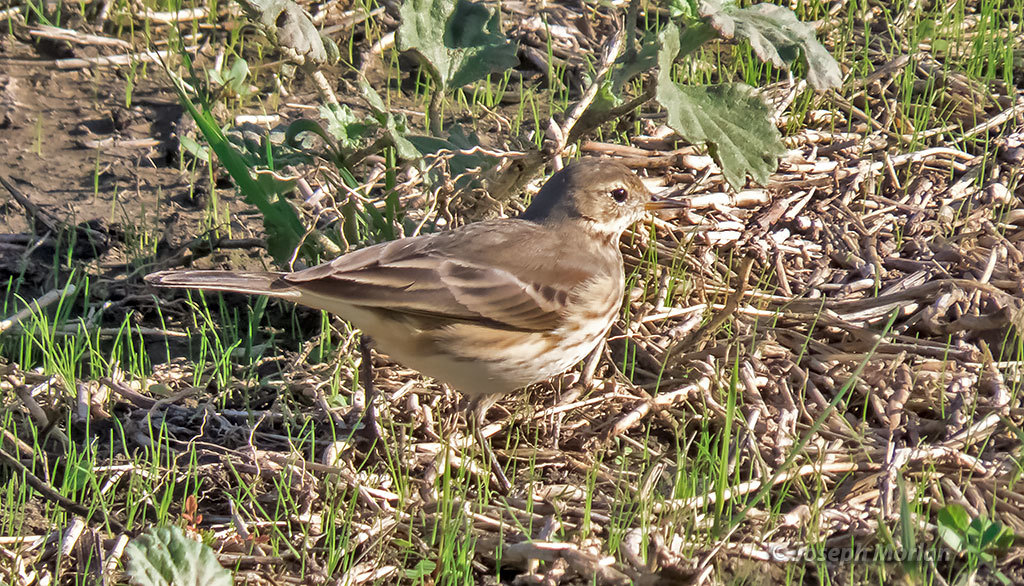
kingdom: Animalia
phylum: Chordata
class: Aves
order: Passeriformes
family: Motacillidae
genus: Anthus
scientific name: Anthus rubescens
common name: Buff-bellied pipit
